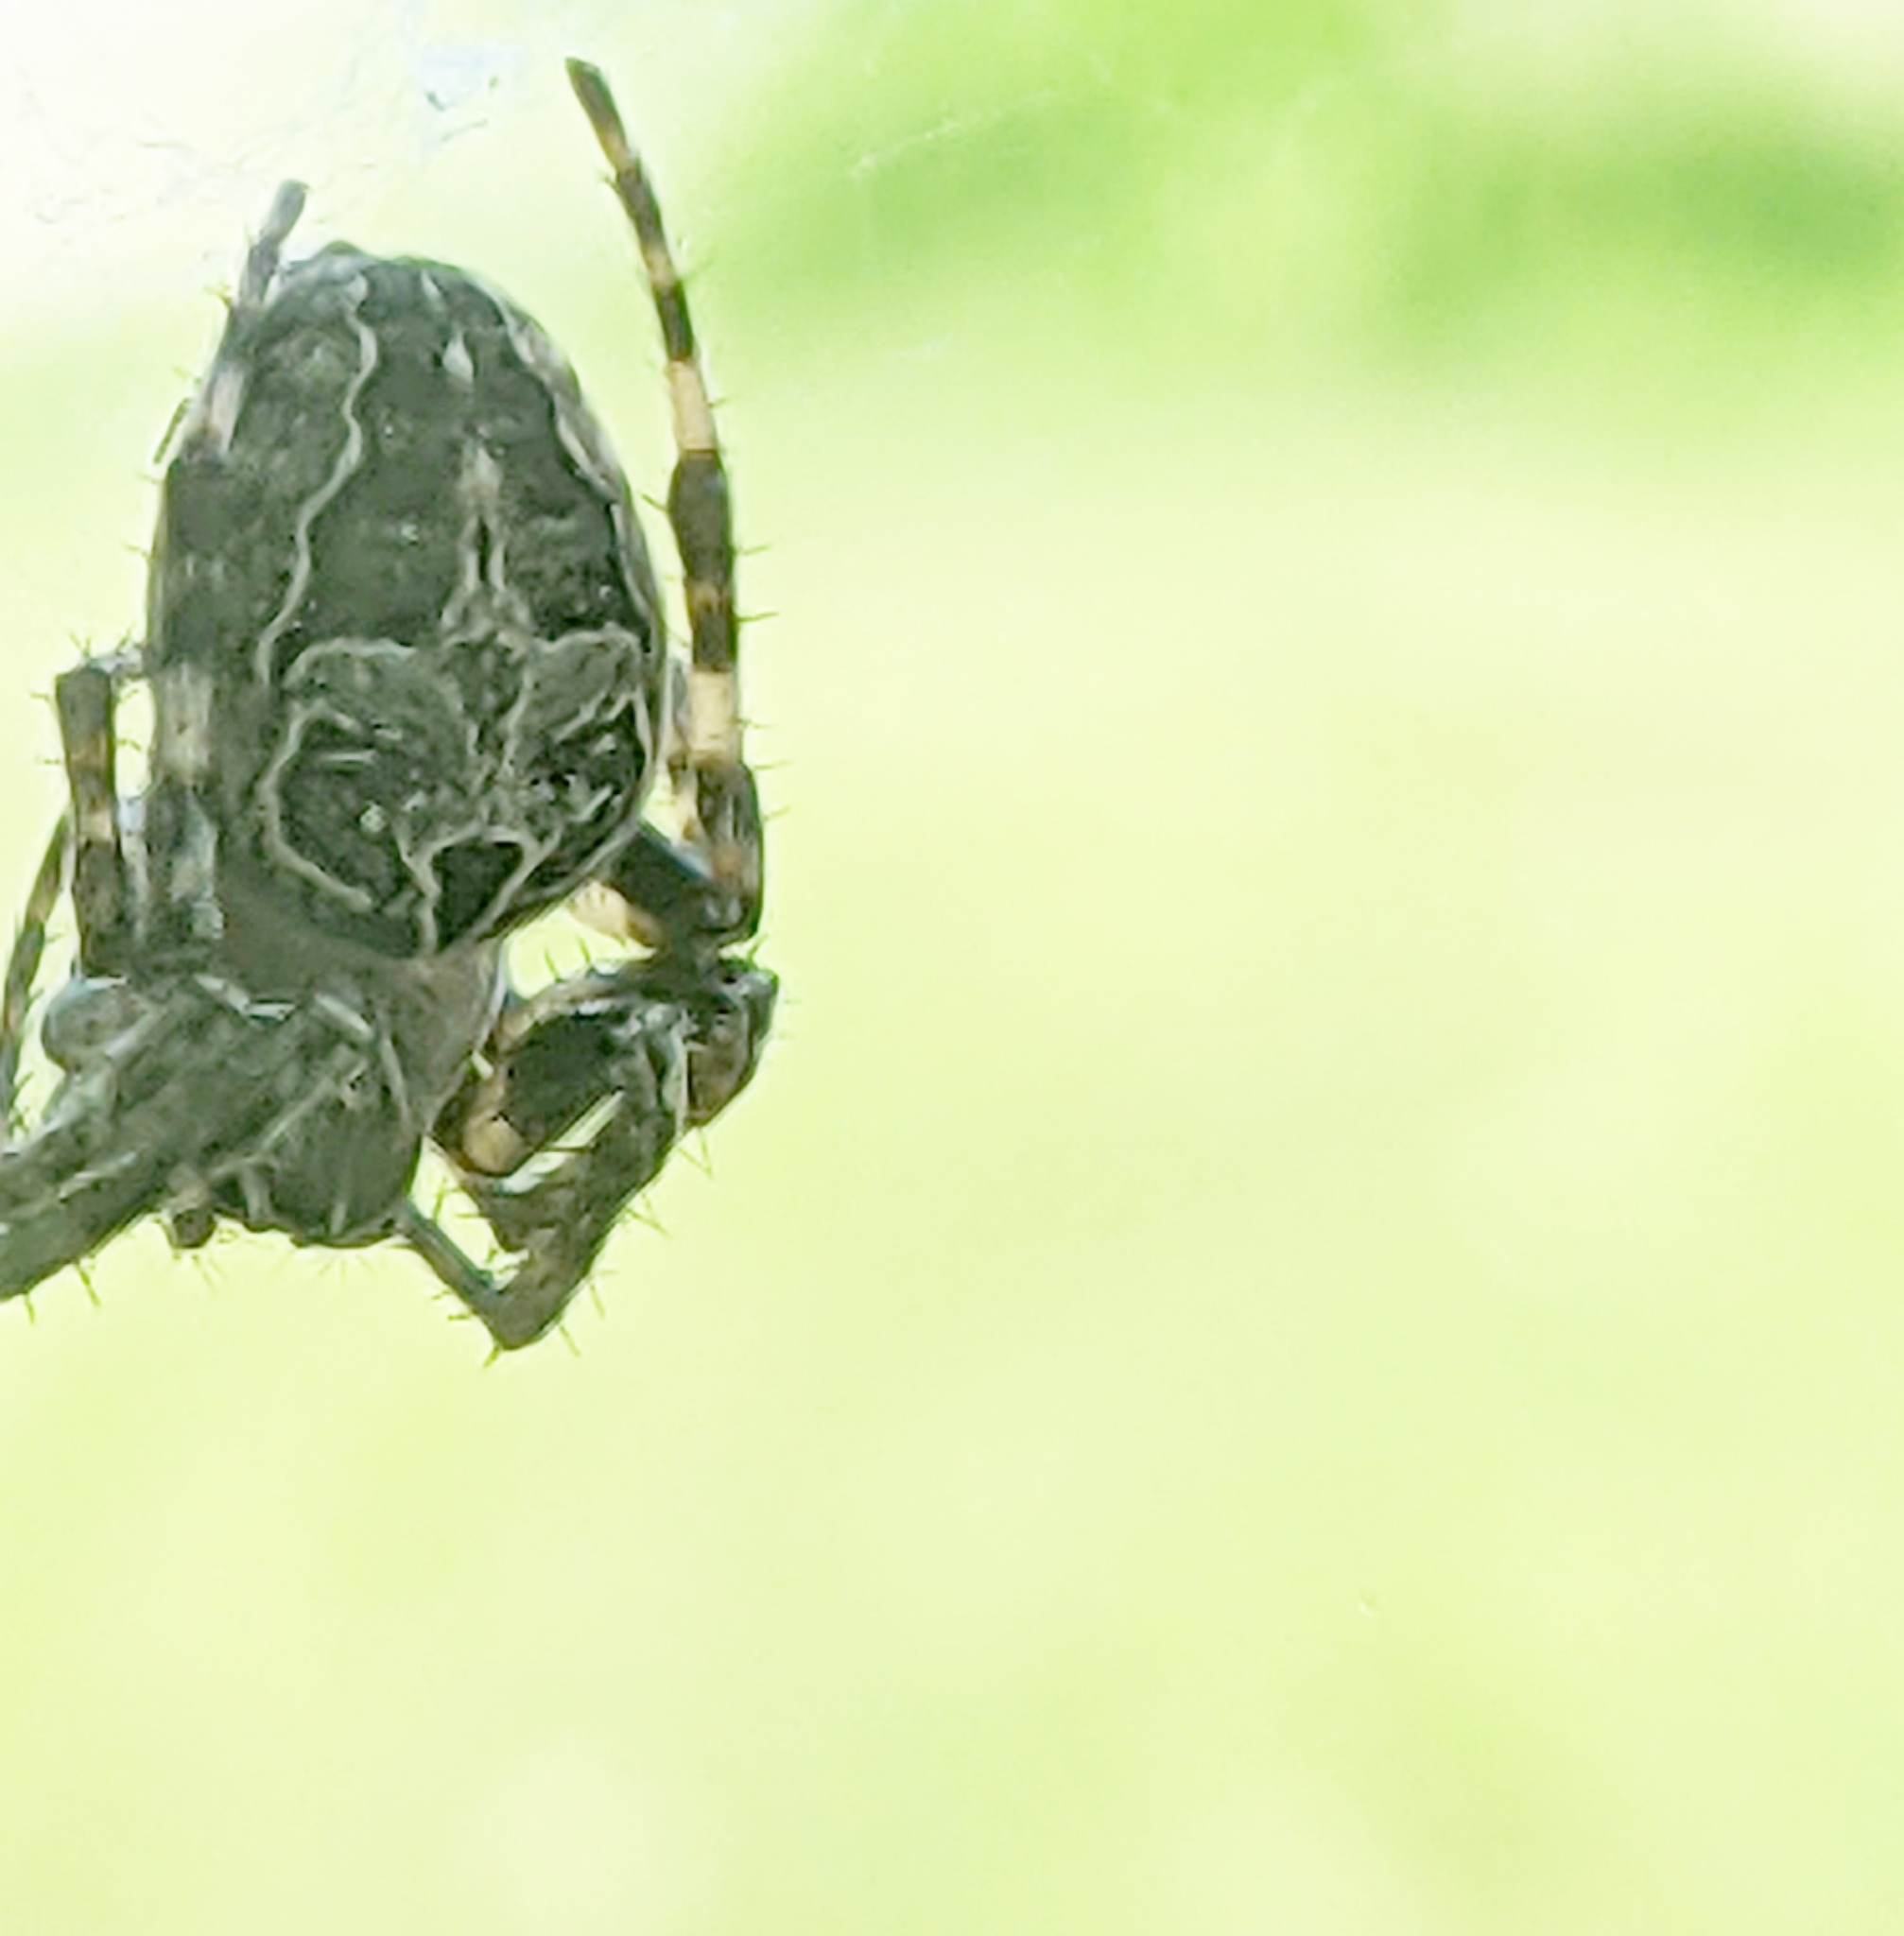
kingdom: Animalia
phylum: Arthropoda
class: Arachnida
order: Araneae
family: Araneidae
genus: Larinioides
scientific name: Larinioides sclopetarius
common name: Bridge orbweaver
